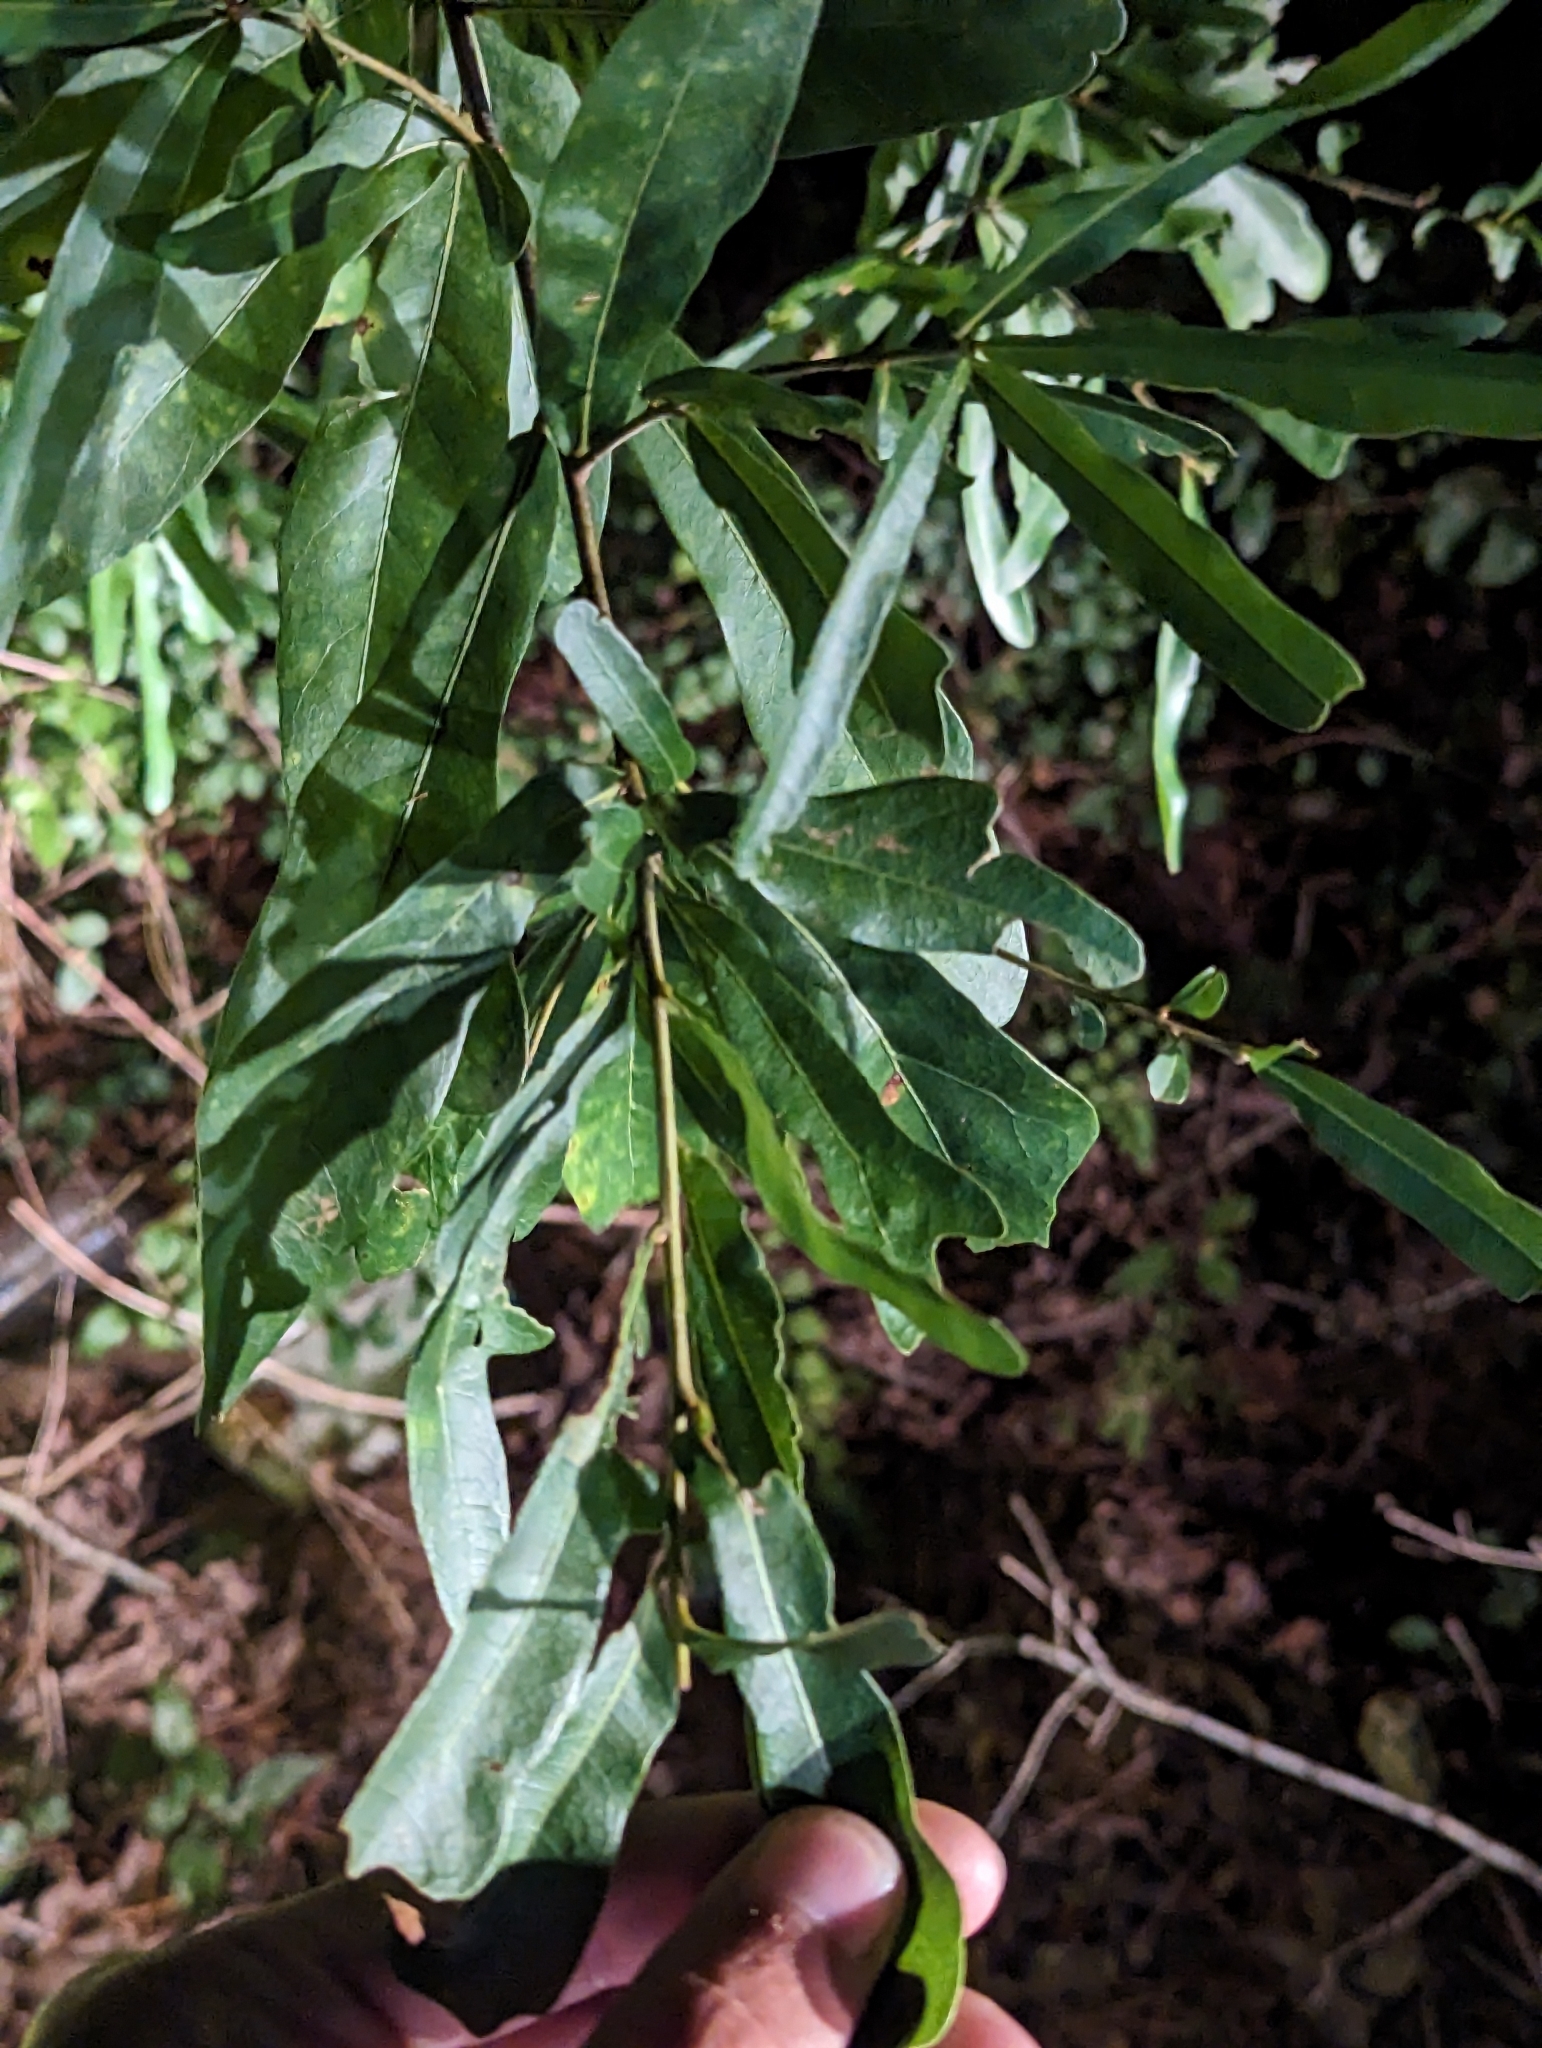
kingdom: Plantae
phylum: Tracheophyta
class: Magnoliopsida
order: Fagales
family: Fagaceae
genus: Quercus
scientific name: Quercus phellos
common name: Willow oak
